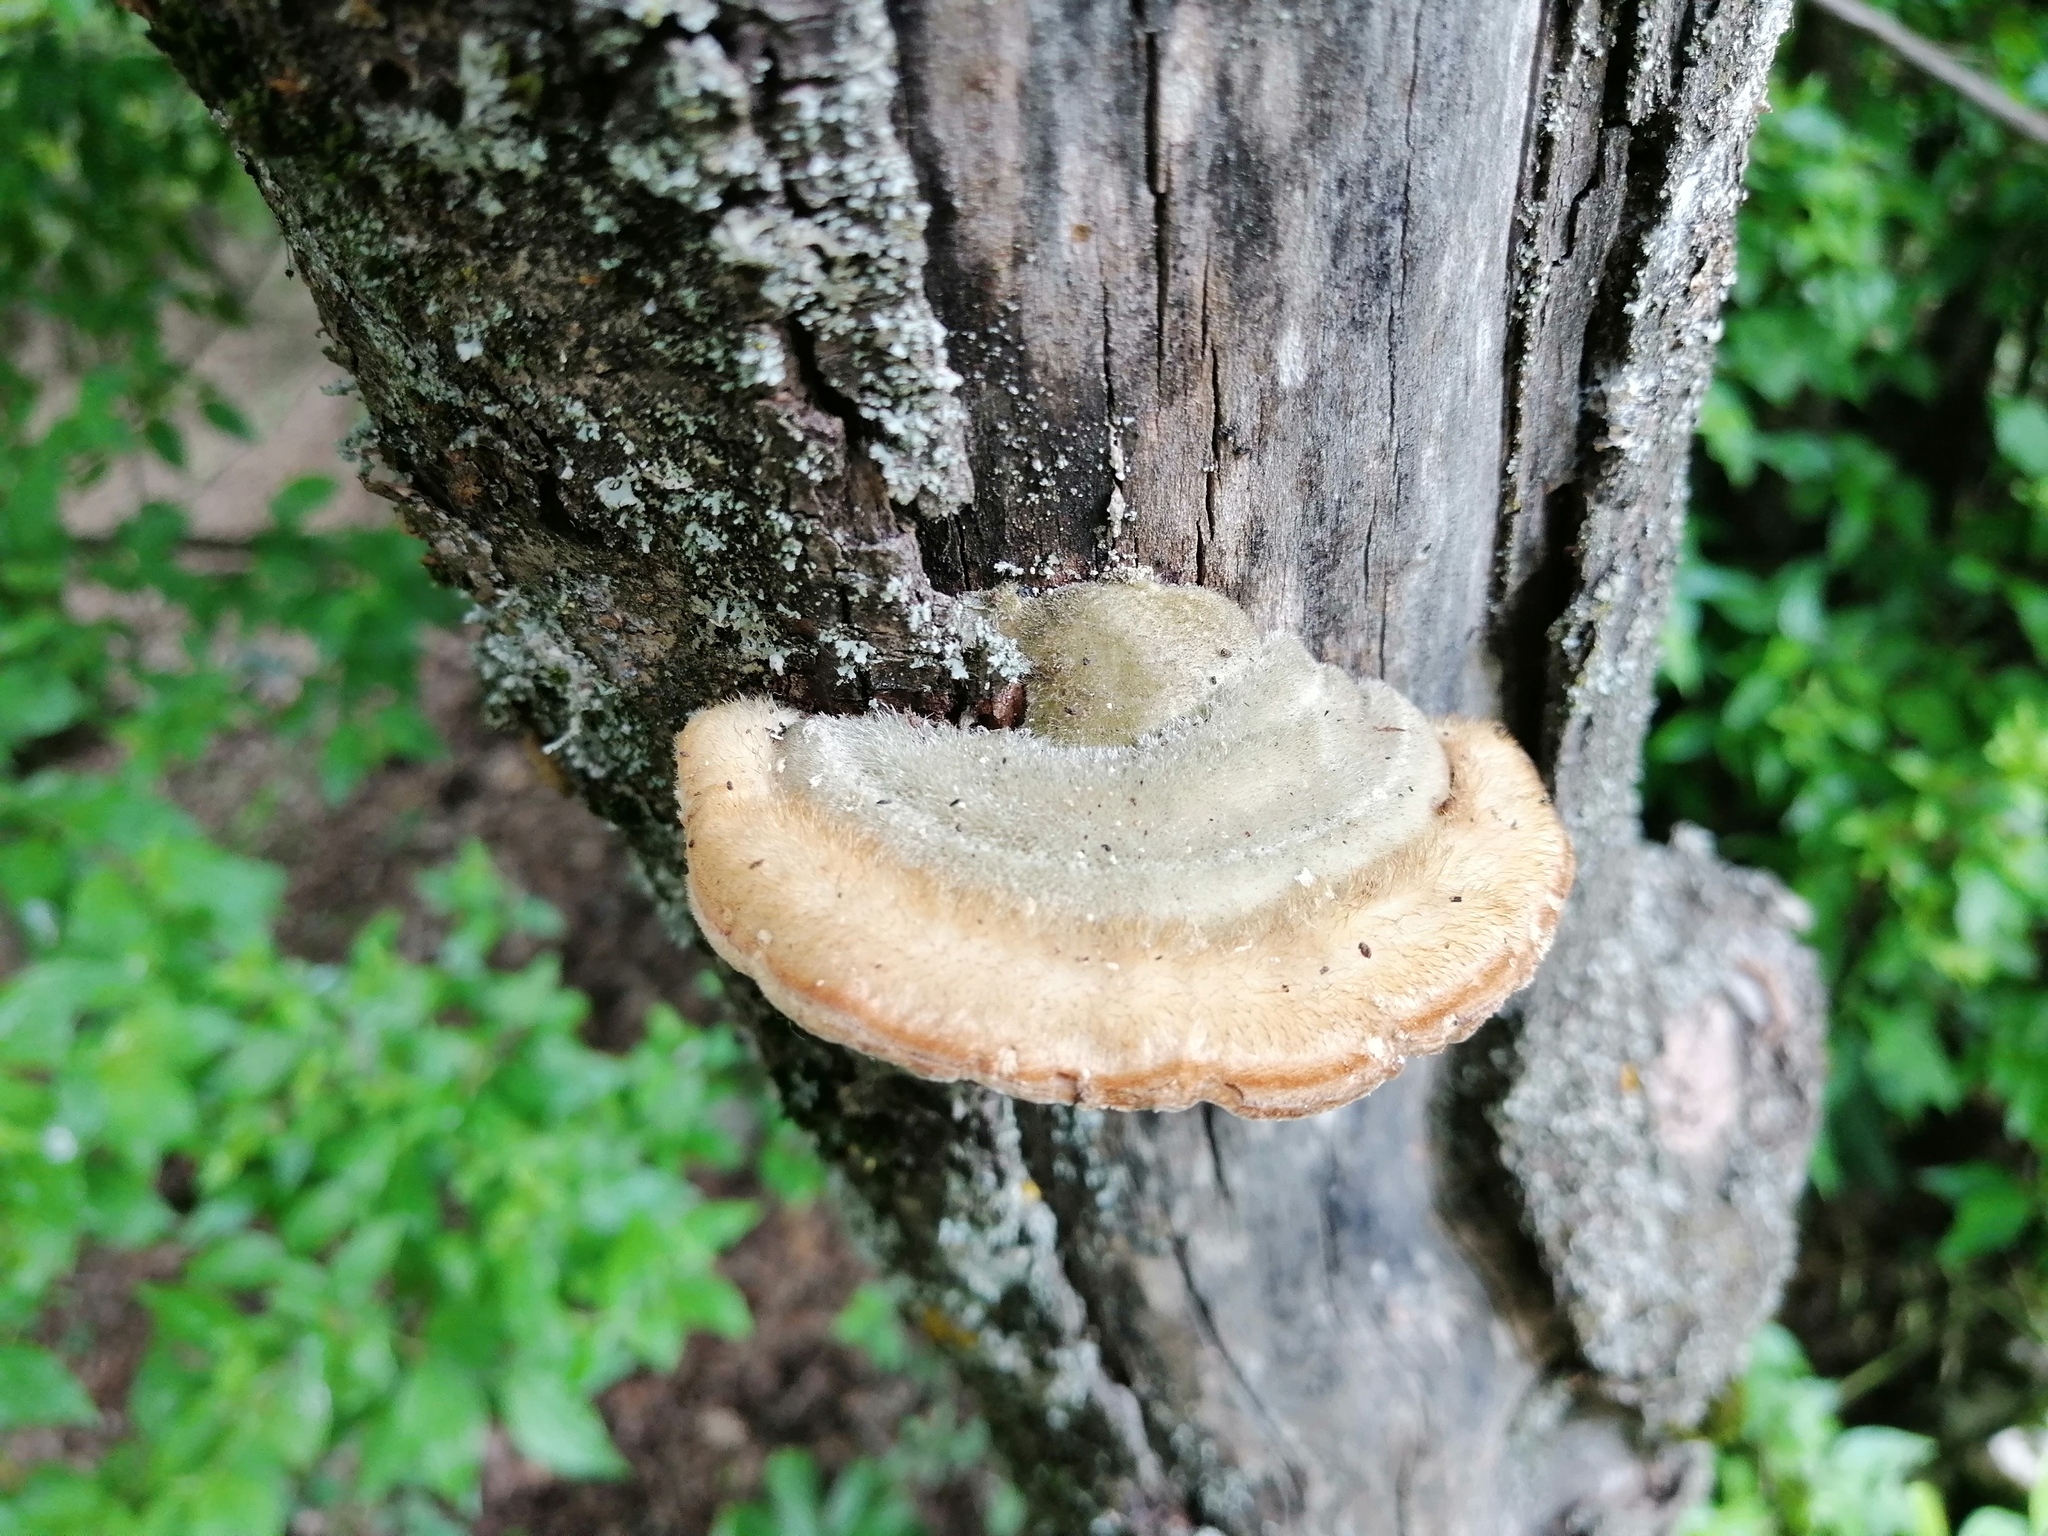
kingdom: Fungi
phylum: Basidiomycota
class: Agaricomycetes
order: Polyporales
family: Polyporaceae
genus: Trametes
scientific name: Trametes hirsuta
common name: Hairy bracket
